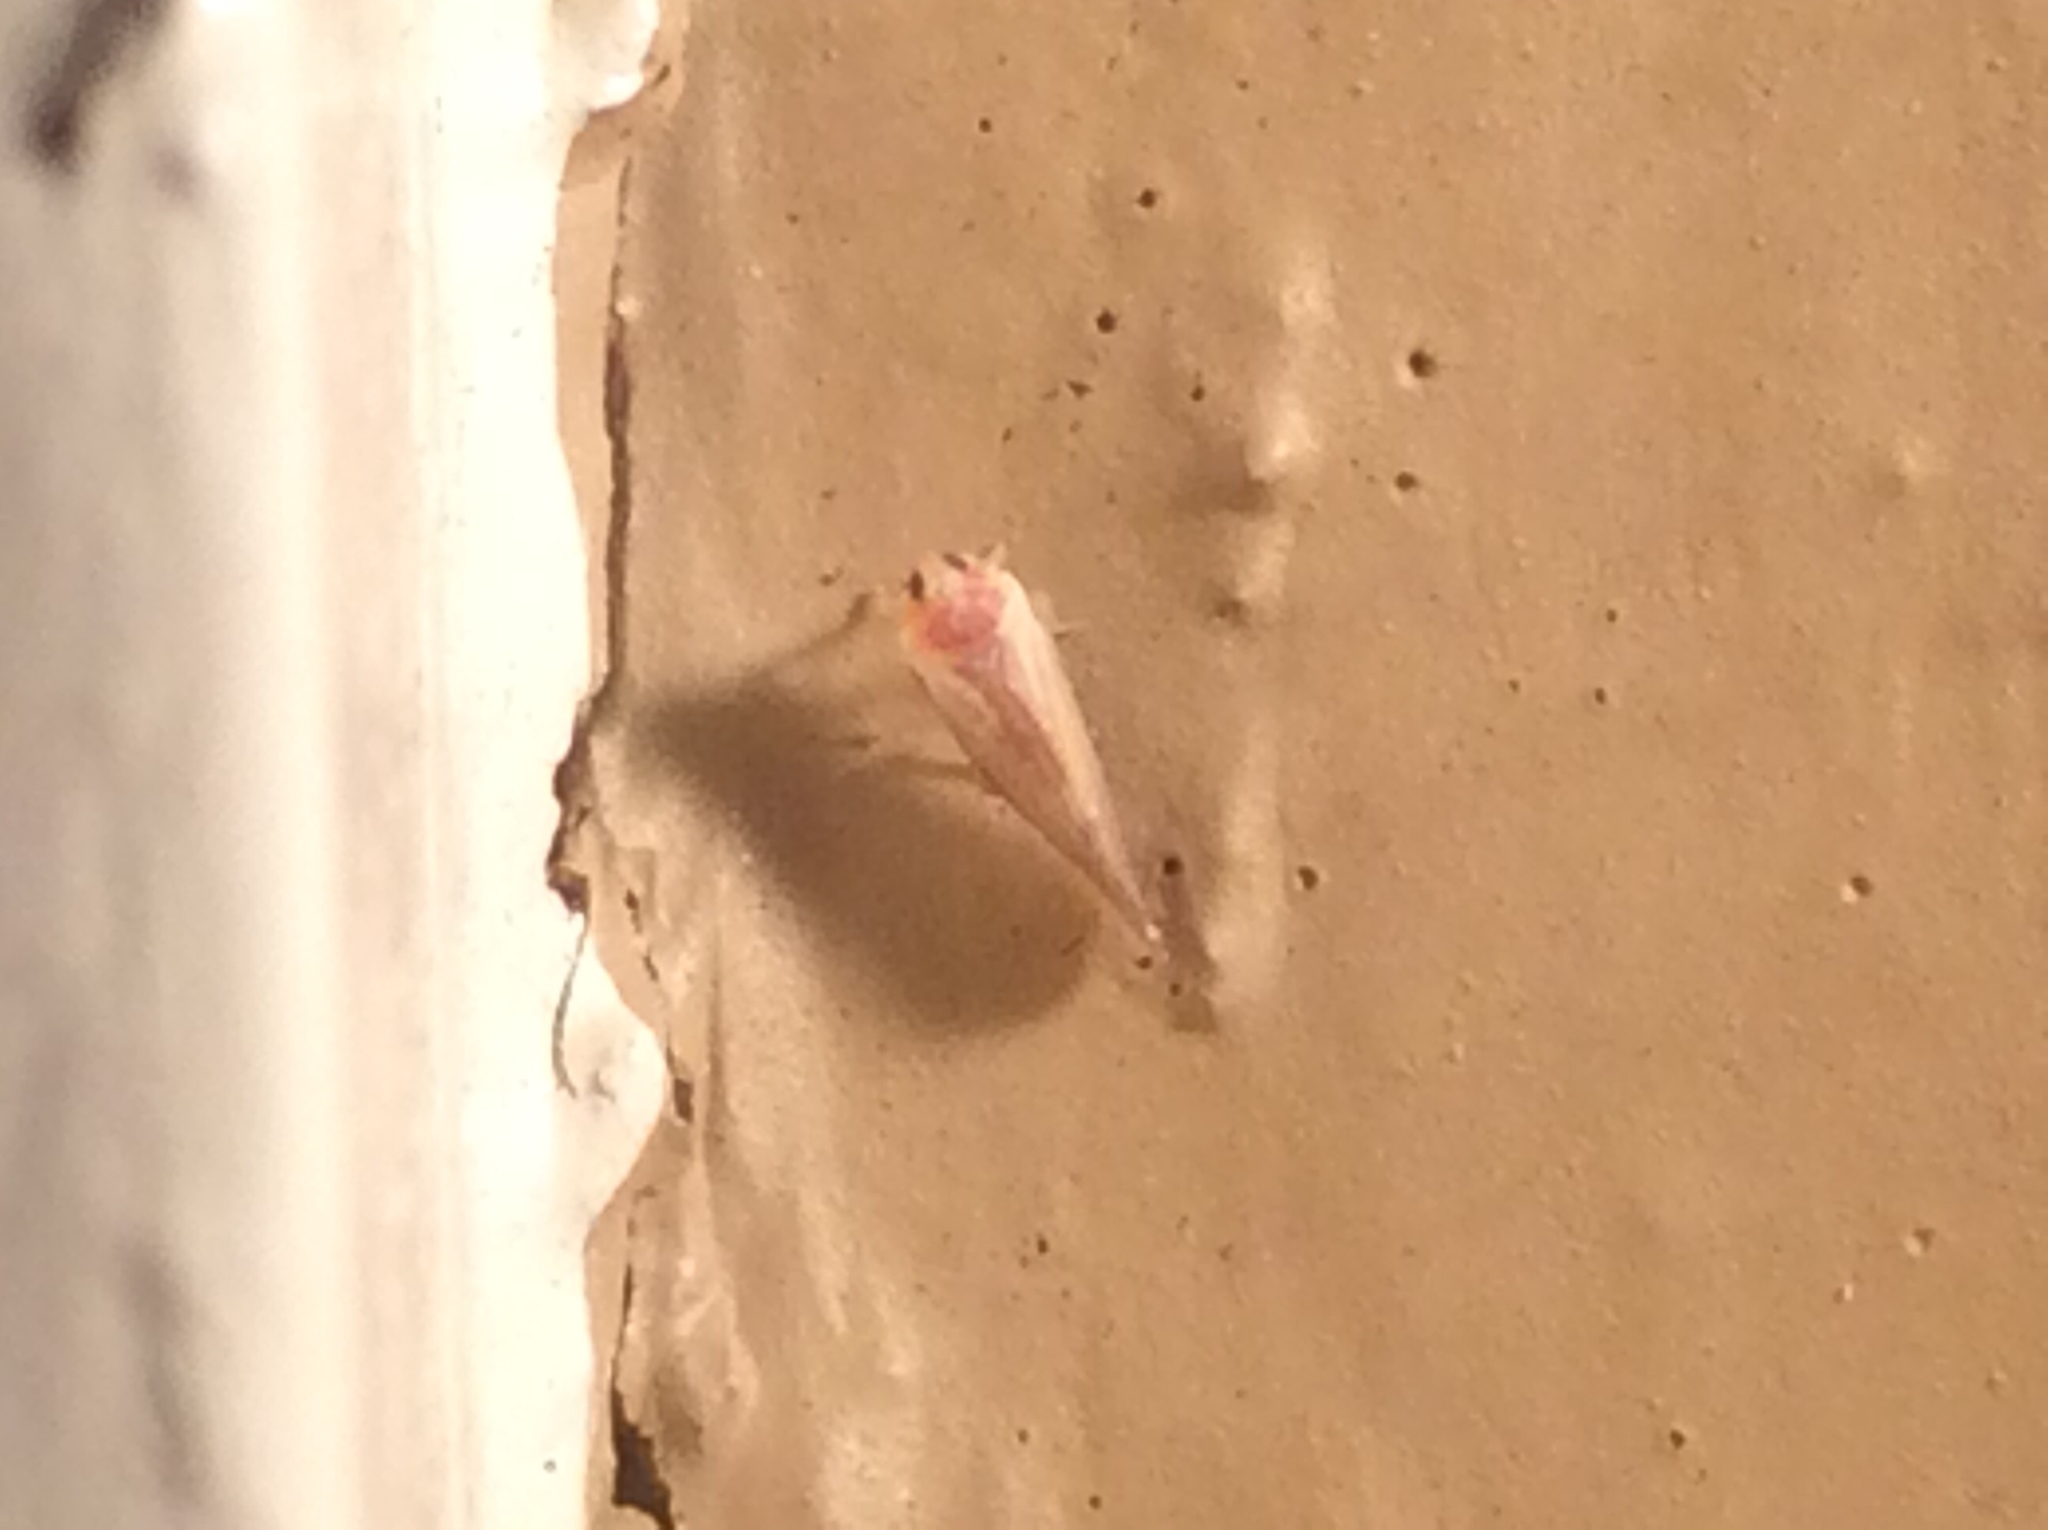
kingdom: Animalia
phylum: Arthropoda
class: Insecta
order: Hemiptera
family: Derbidae
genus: Omolicna
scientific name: Omolicna uhleri
